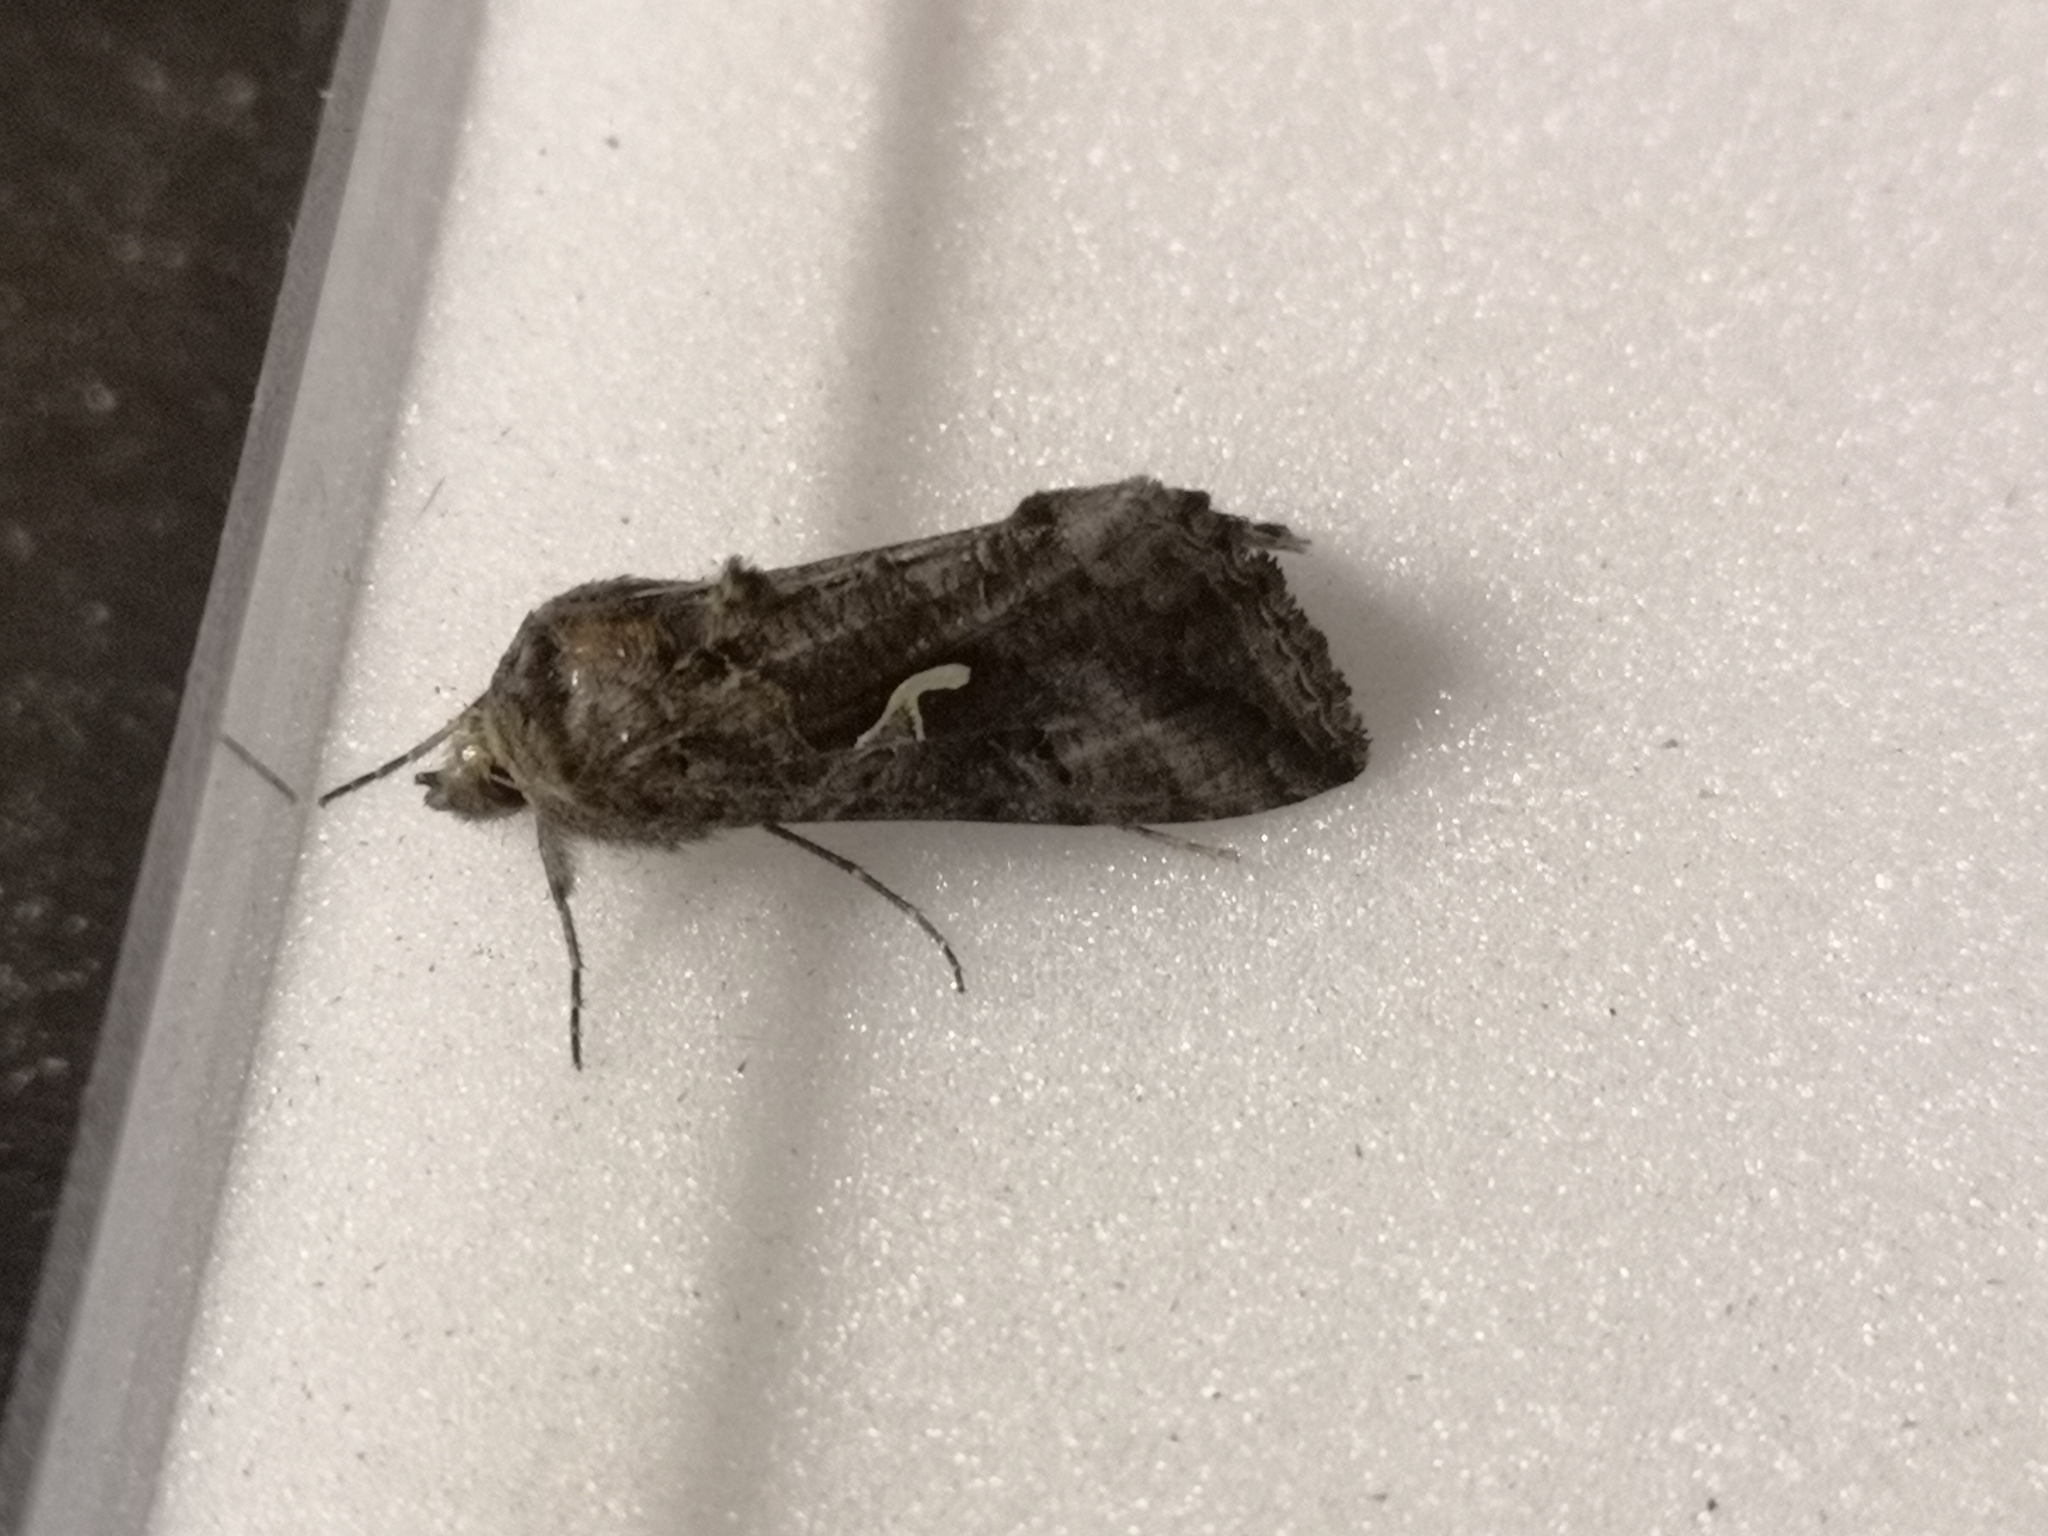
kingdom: Animalia
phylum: Arthropoda
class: Insecta
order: Lepidoptera
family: Noctuidae
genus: Autographa
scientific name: Autographa gamma
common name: Silver y
